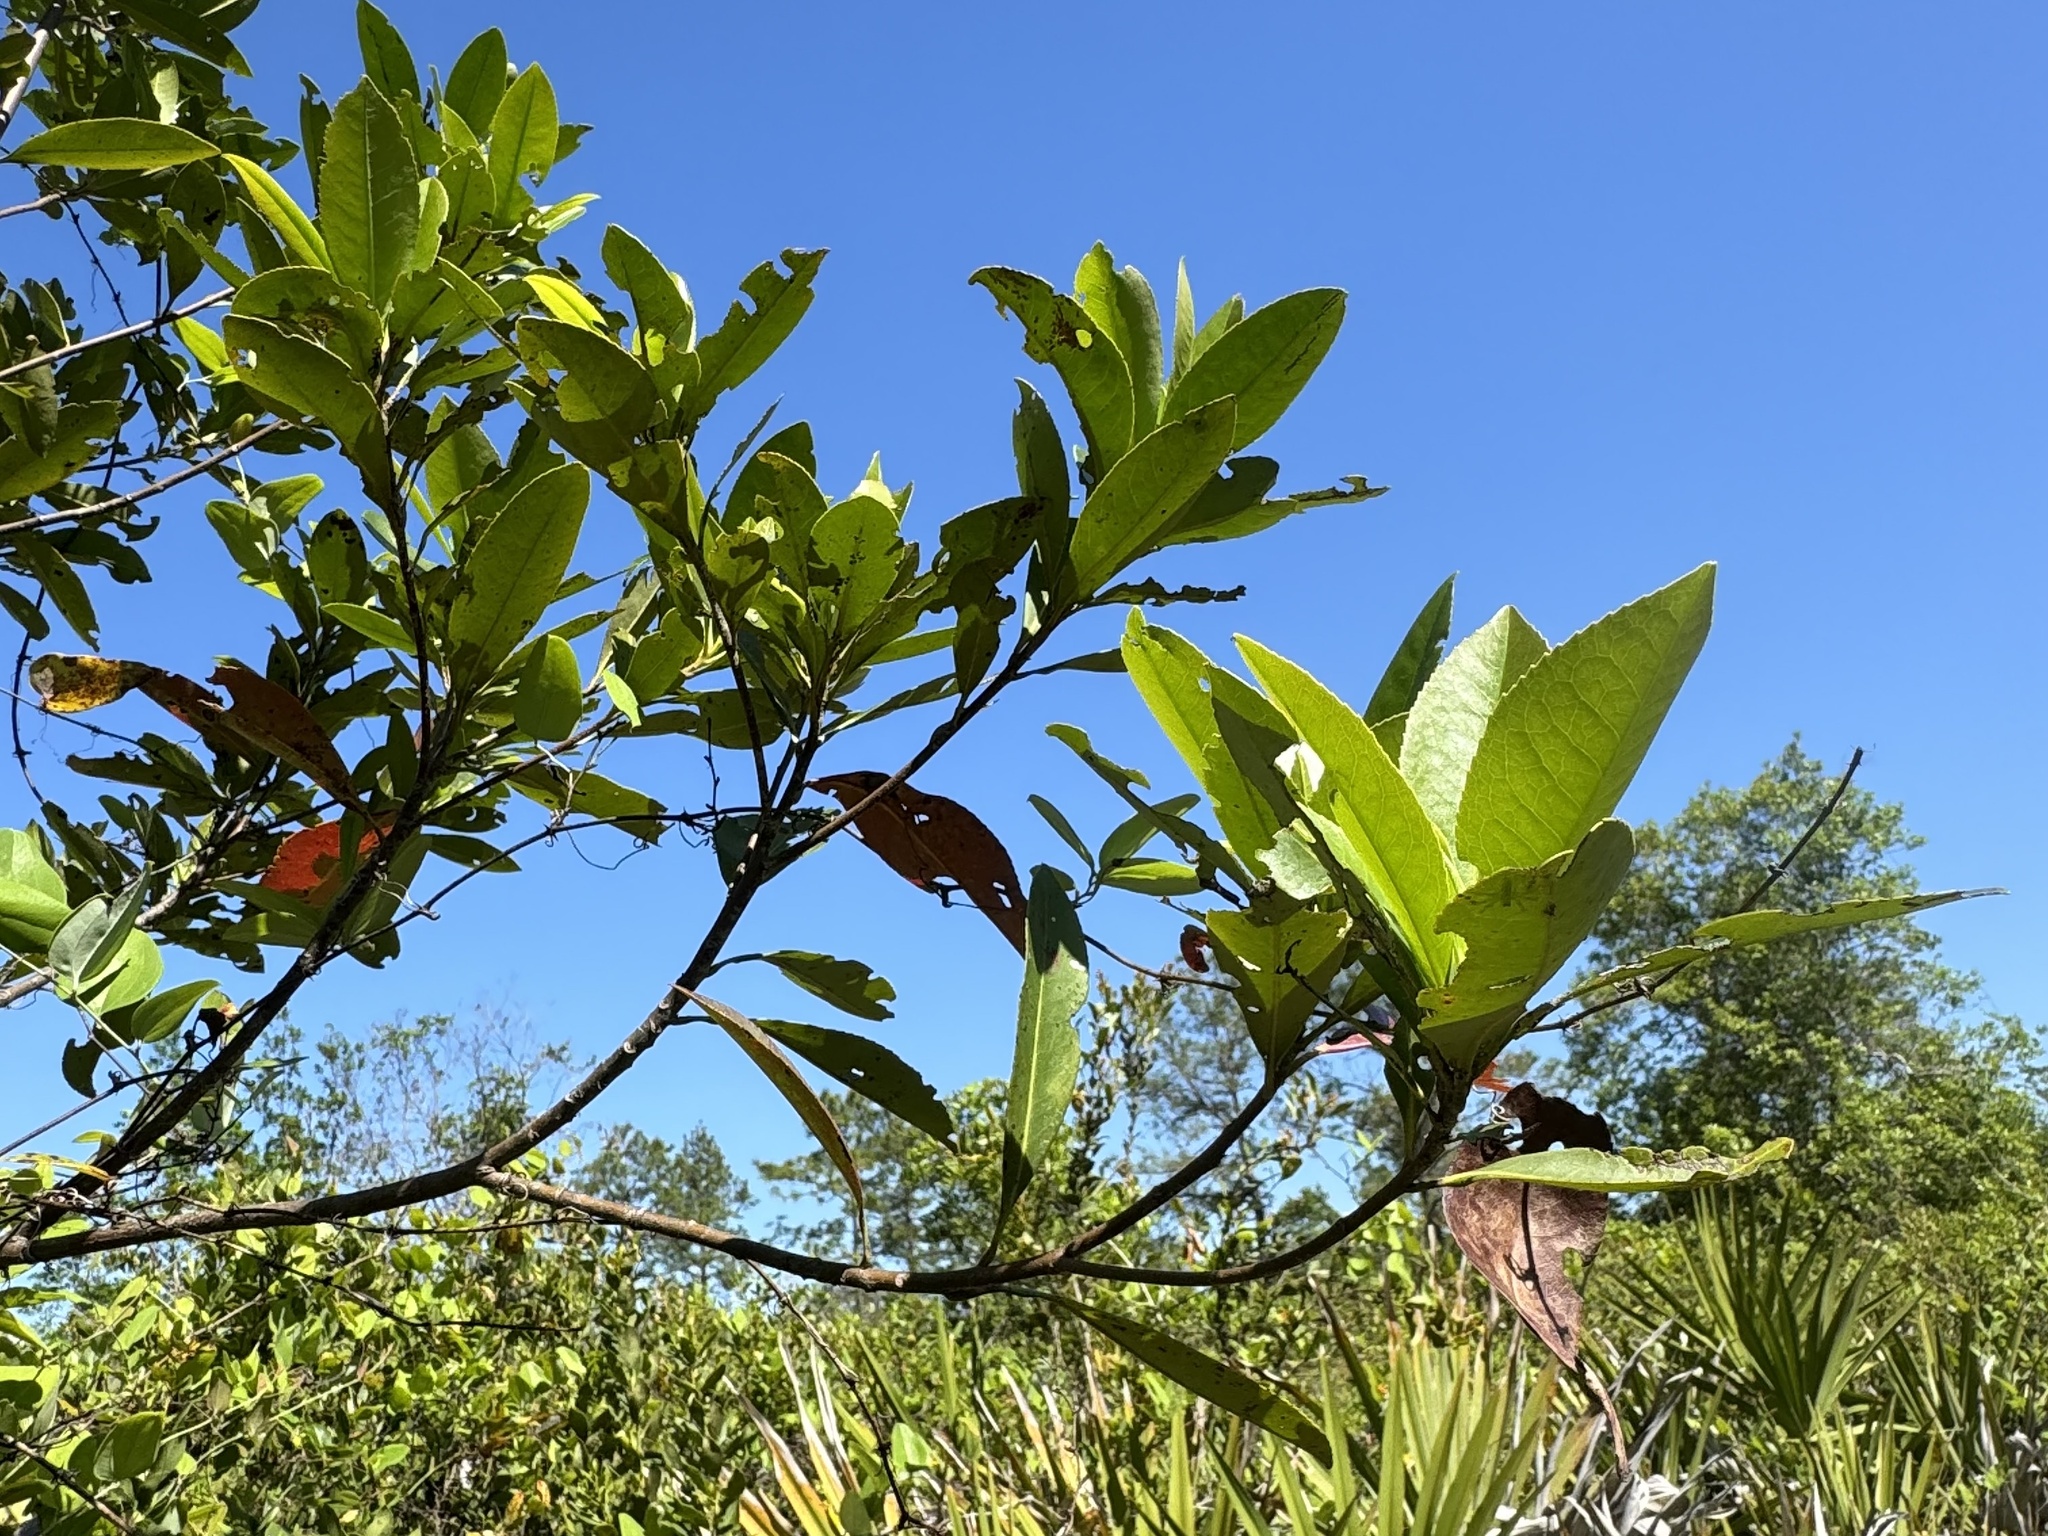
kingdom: Plantae
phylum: Tracheophyta
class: Magnoliopsida
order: Ericales
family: Theaceae
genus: Gordonia
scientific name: Gordonia lasianthus
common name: Loblolly bay
